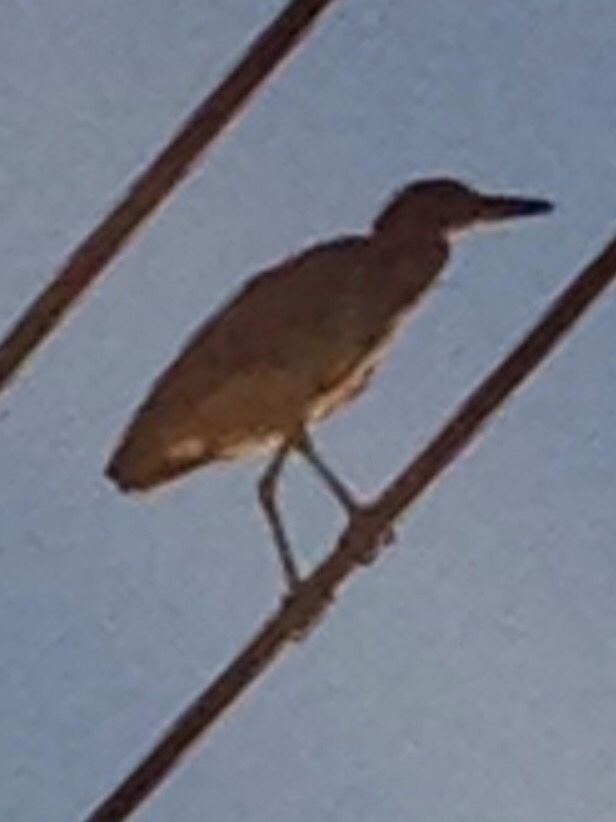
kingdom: Animalia
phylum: Chordata
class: Aves
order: Pelecaniformes
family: Ardeidae
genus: Butorides
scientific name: Butorides virescens
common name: Green heron
